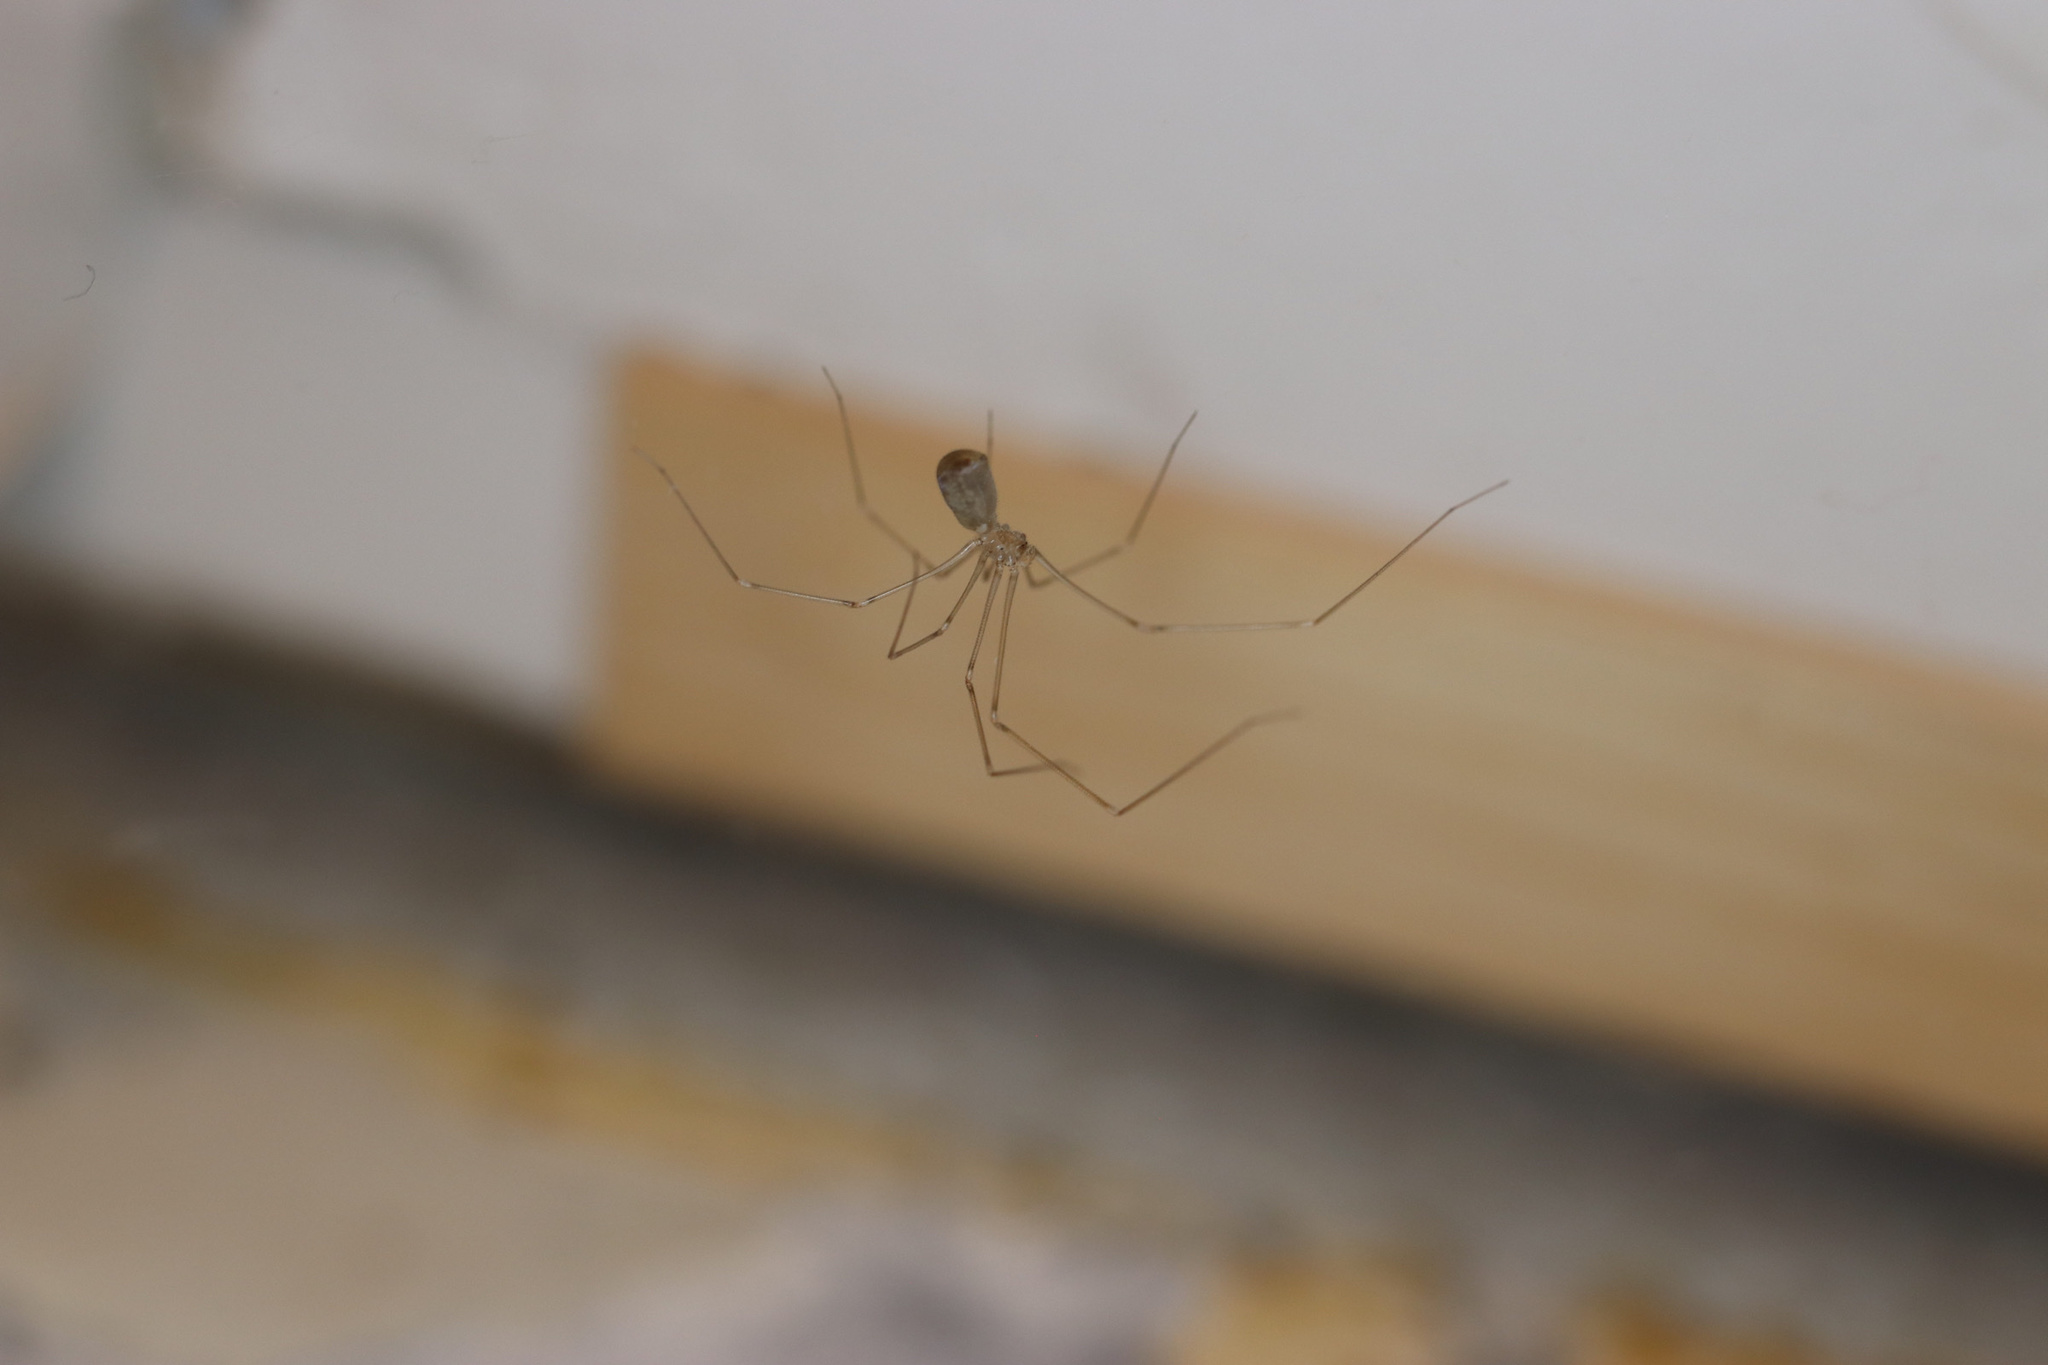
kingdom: Animalia
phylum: Arthropoda
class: Arachnida
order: Araneae
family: Pholcidae
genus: Crossopriza
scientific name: Crossopriza lyoni
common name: Cellar spiders
